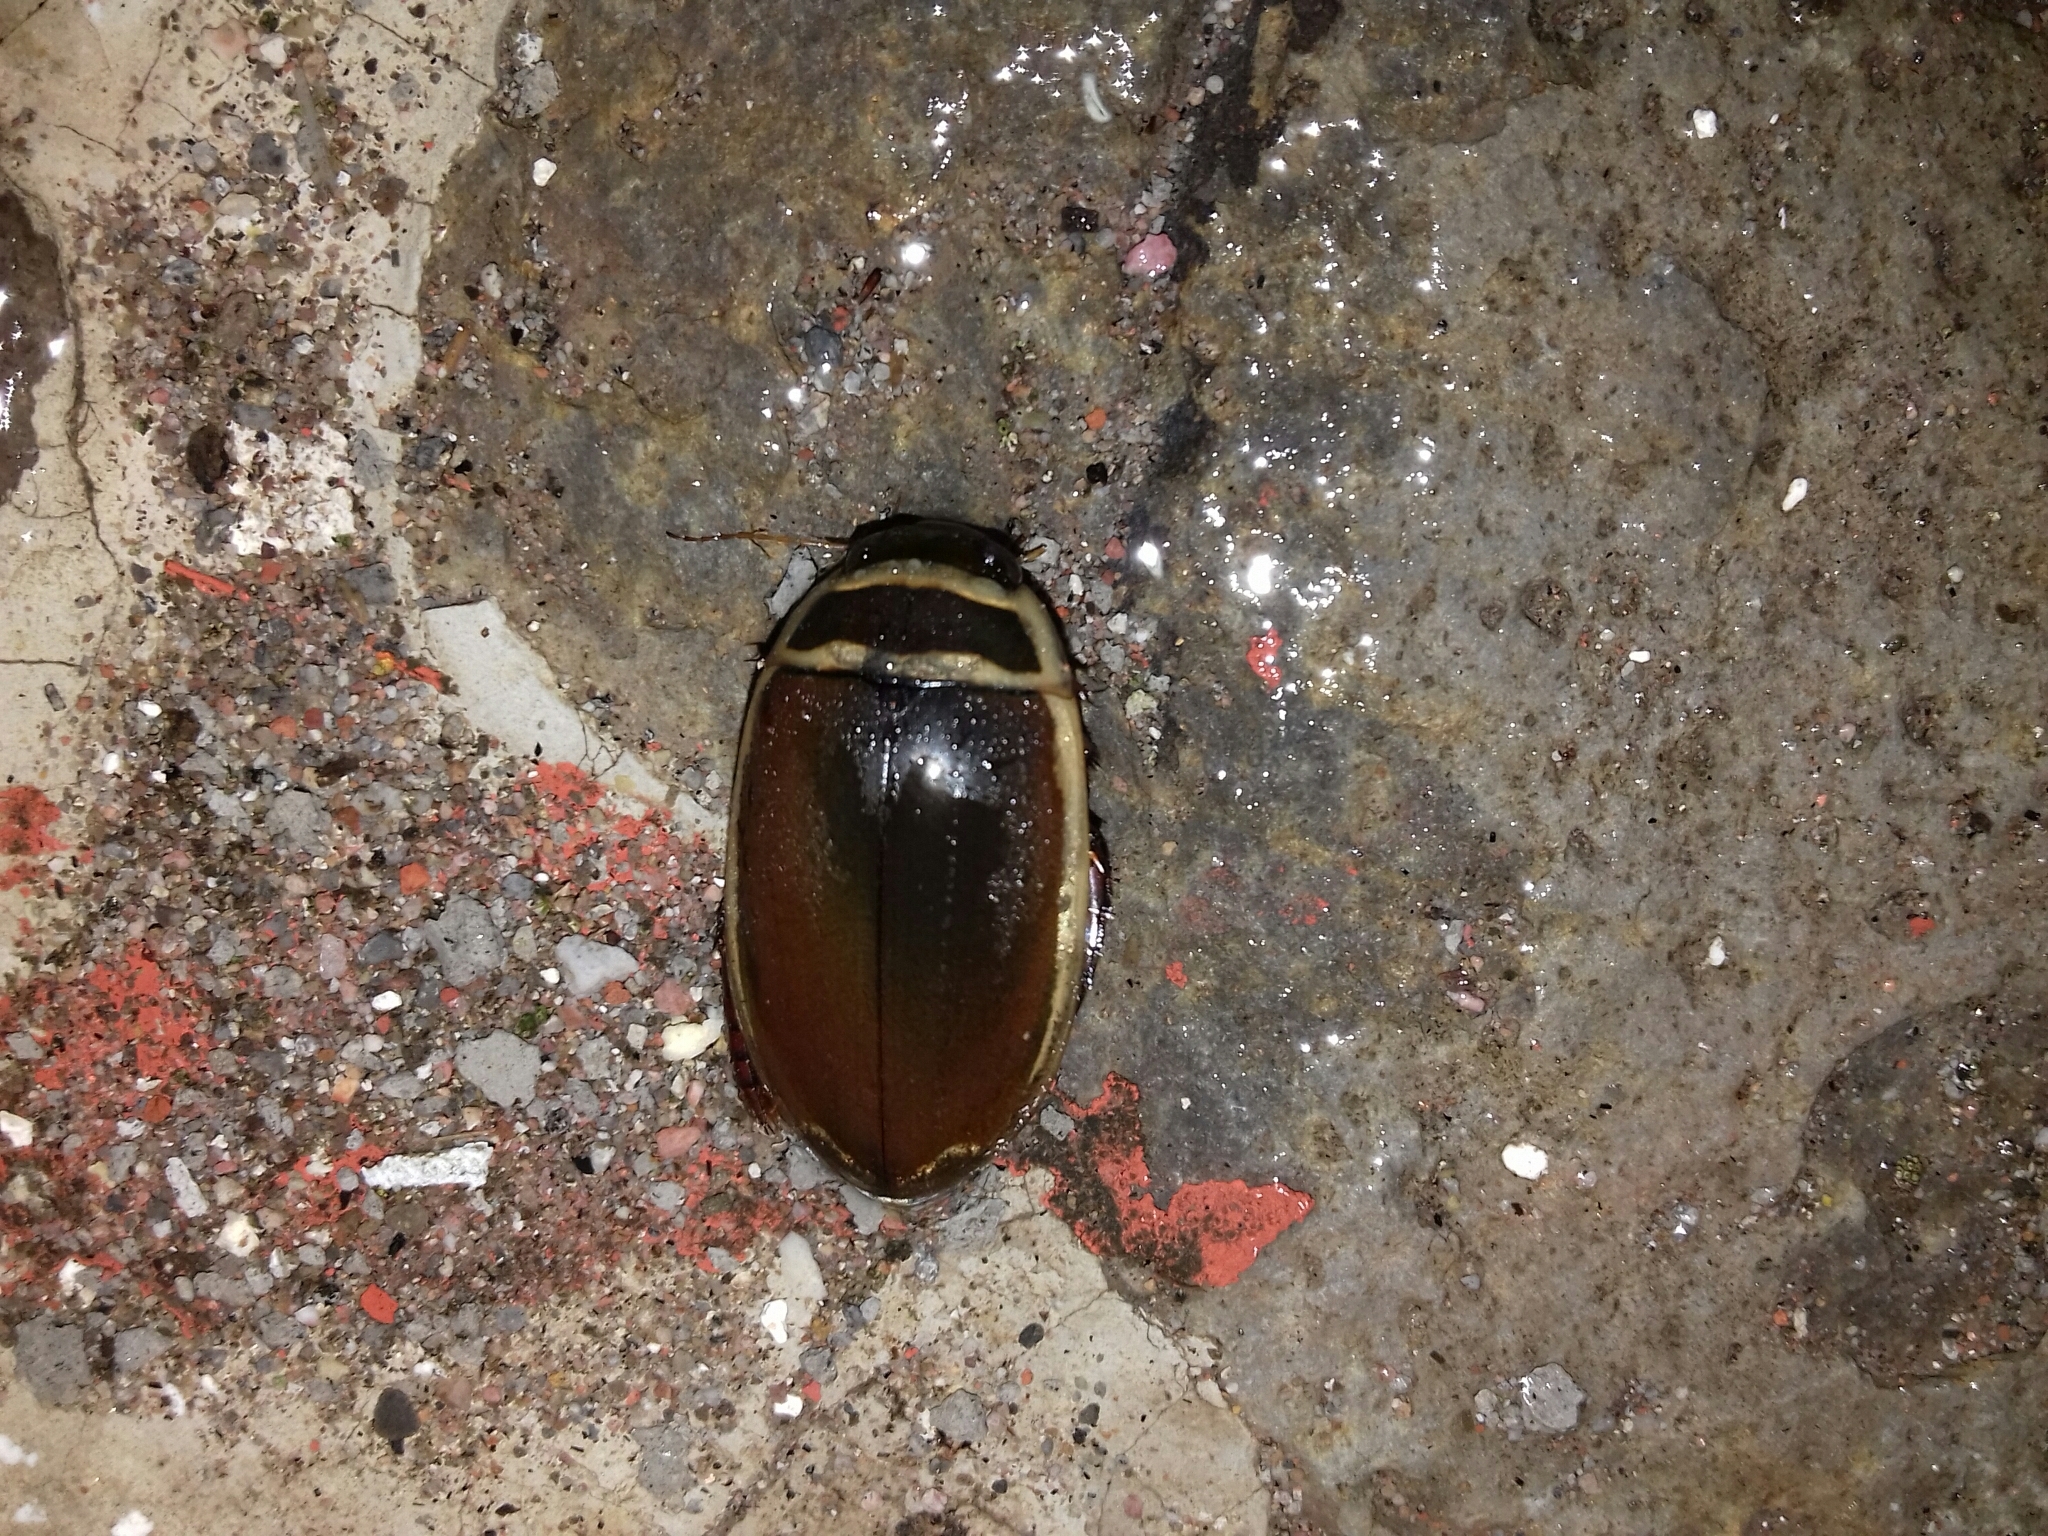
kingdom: Animalia
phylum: Arthropoda
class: Insecta
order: Coleoptera
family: Dytiscidae
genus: Dytiscus
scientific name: Dytiscus habilis
